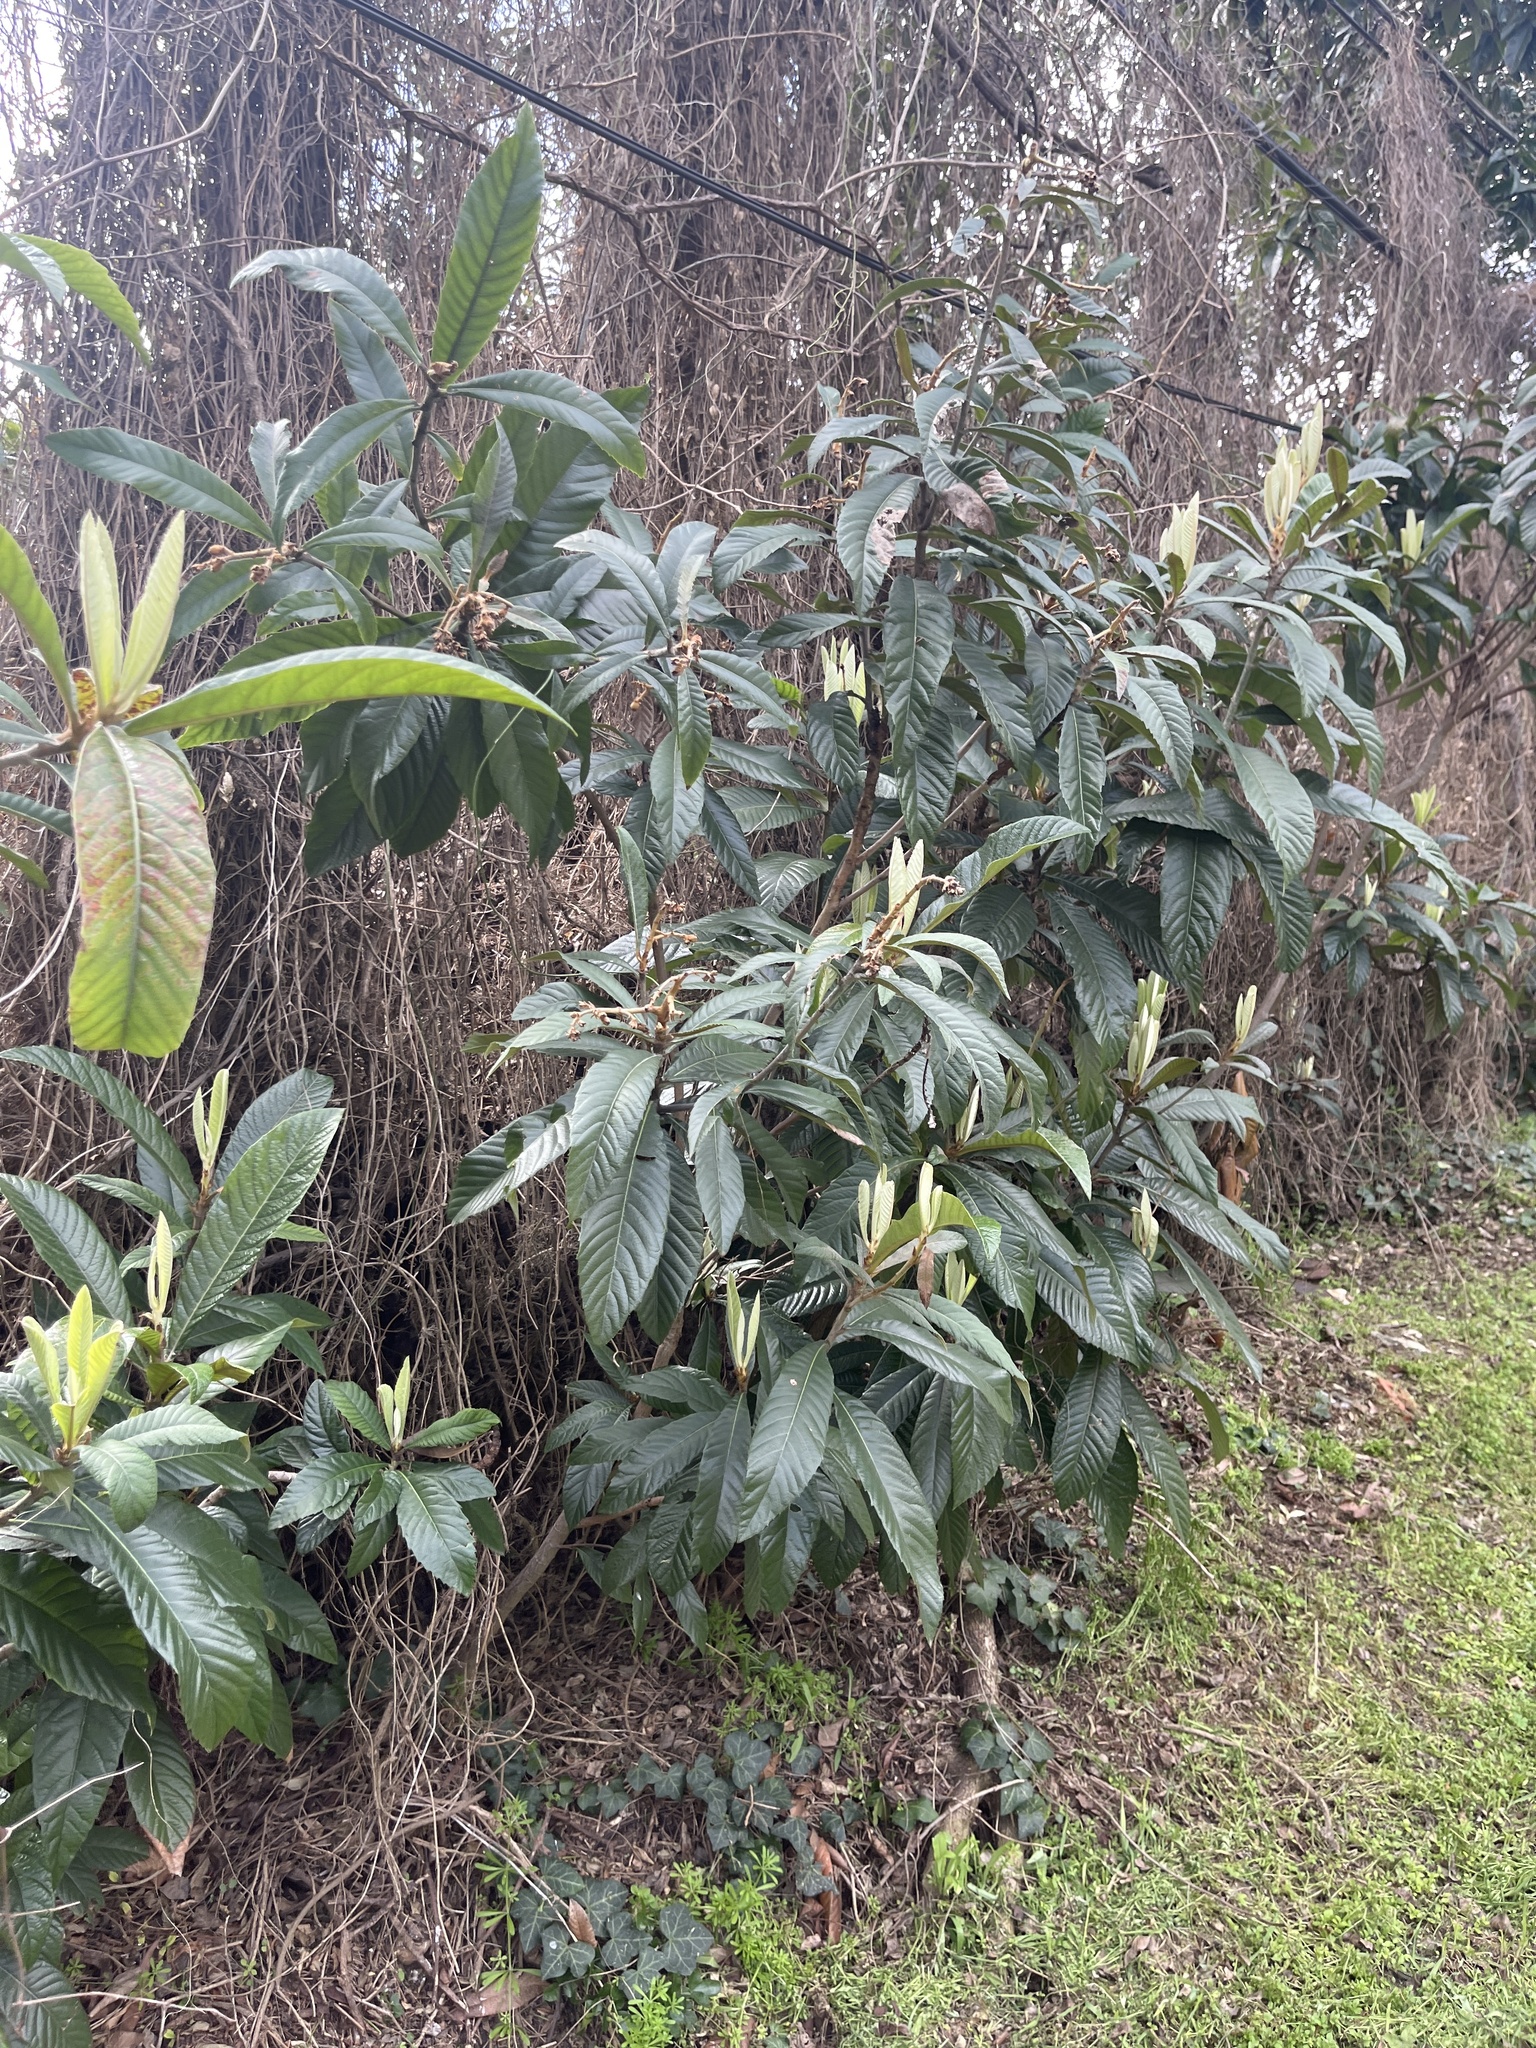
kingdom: Plantae
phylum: Tracheophyta
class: Magnoliopsida
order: Rosales
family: Rosaceae
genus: Rhaphiolepis
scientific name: Rhaphiolepis bibas
